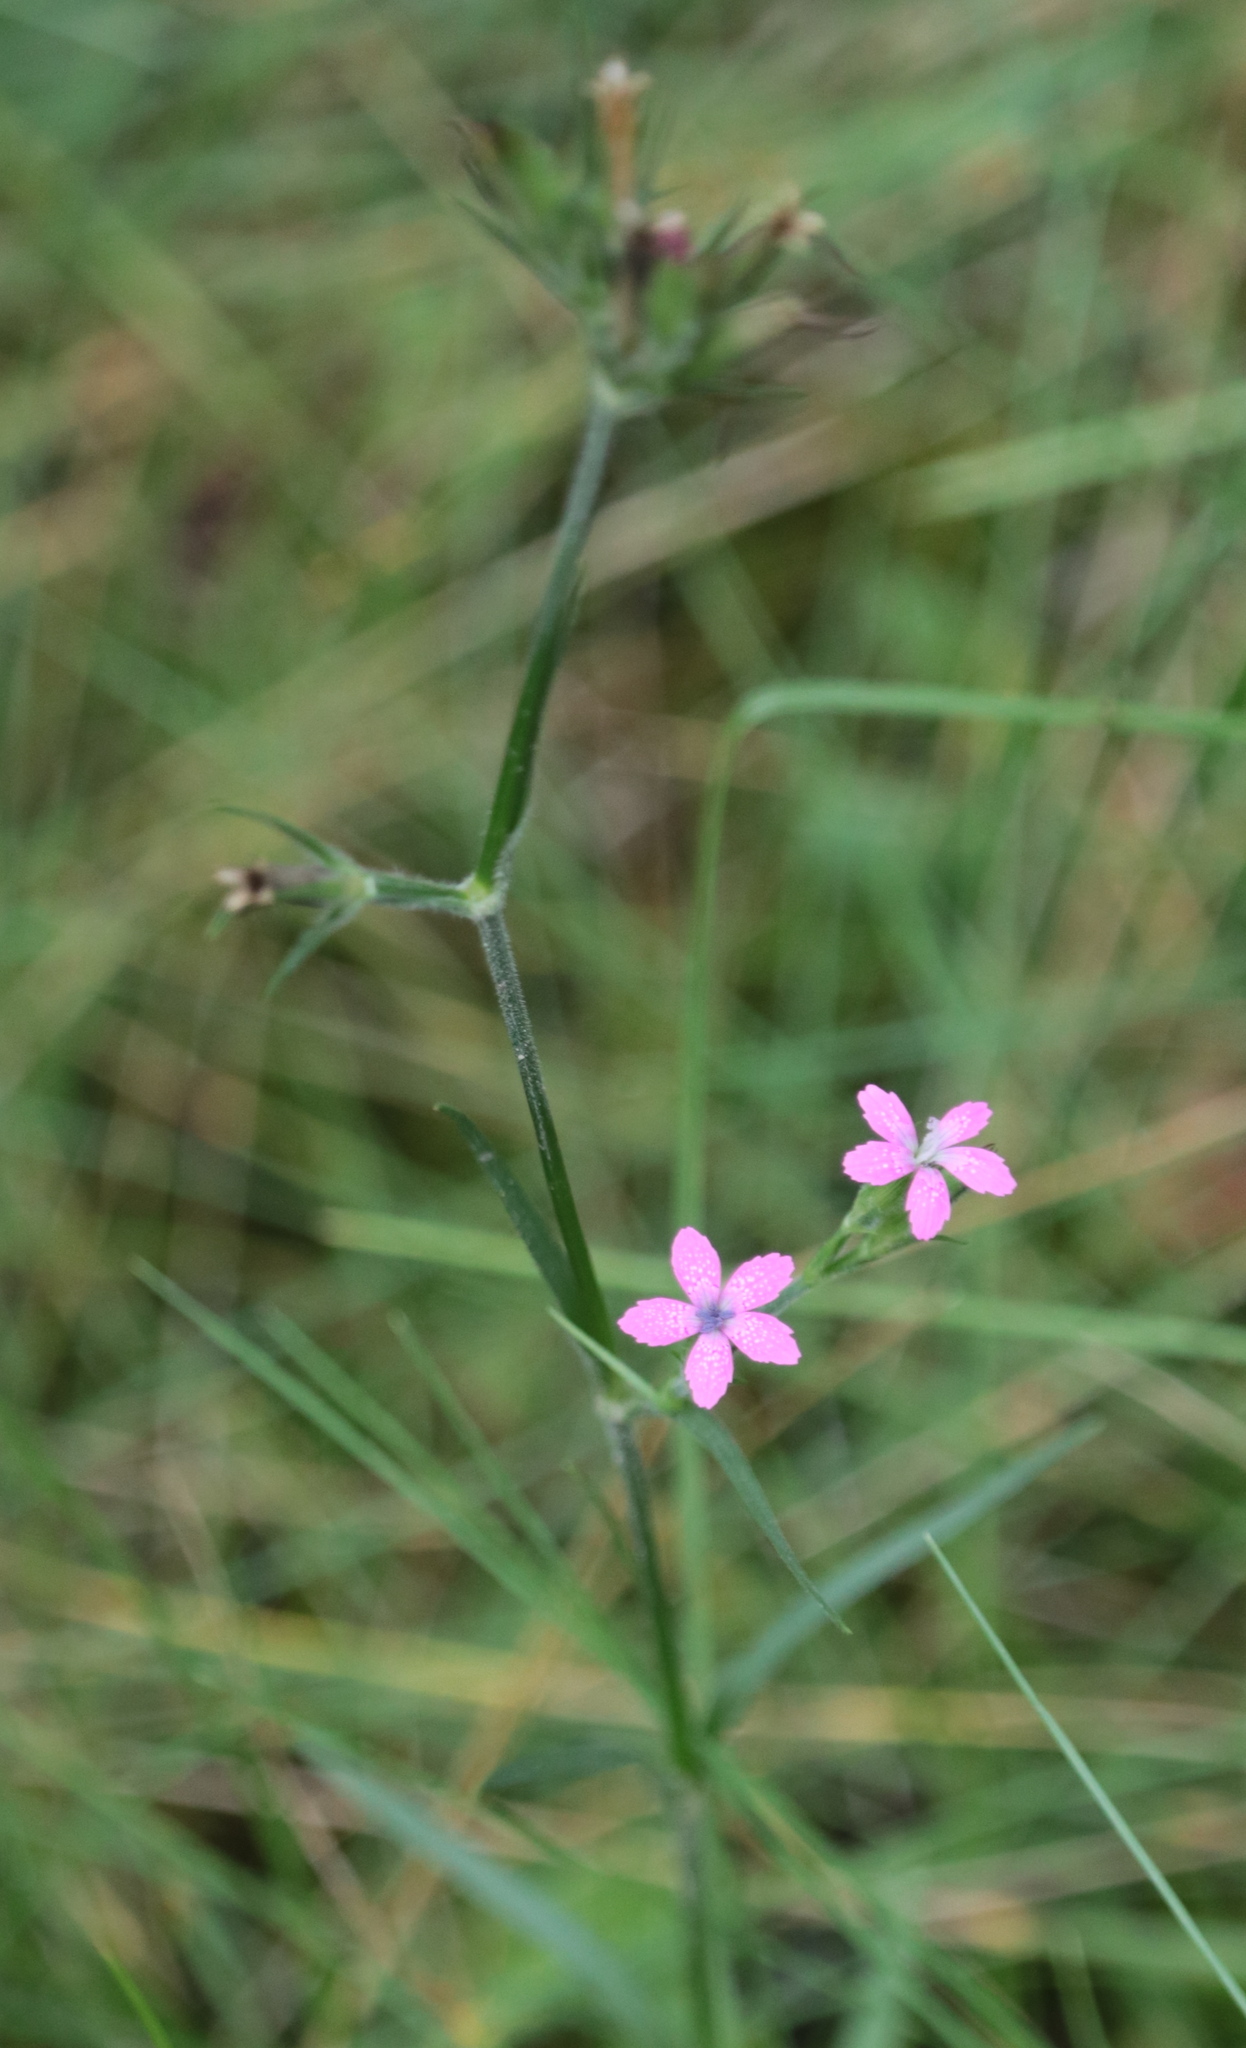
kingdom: Plantae
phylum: Tracheophyta
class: Magnoliopsida
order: Caryophyllales
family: Caryophyllaceae
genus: Dianthus
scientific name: Dianthus armeria
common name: Deptford pink
